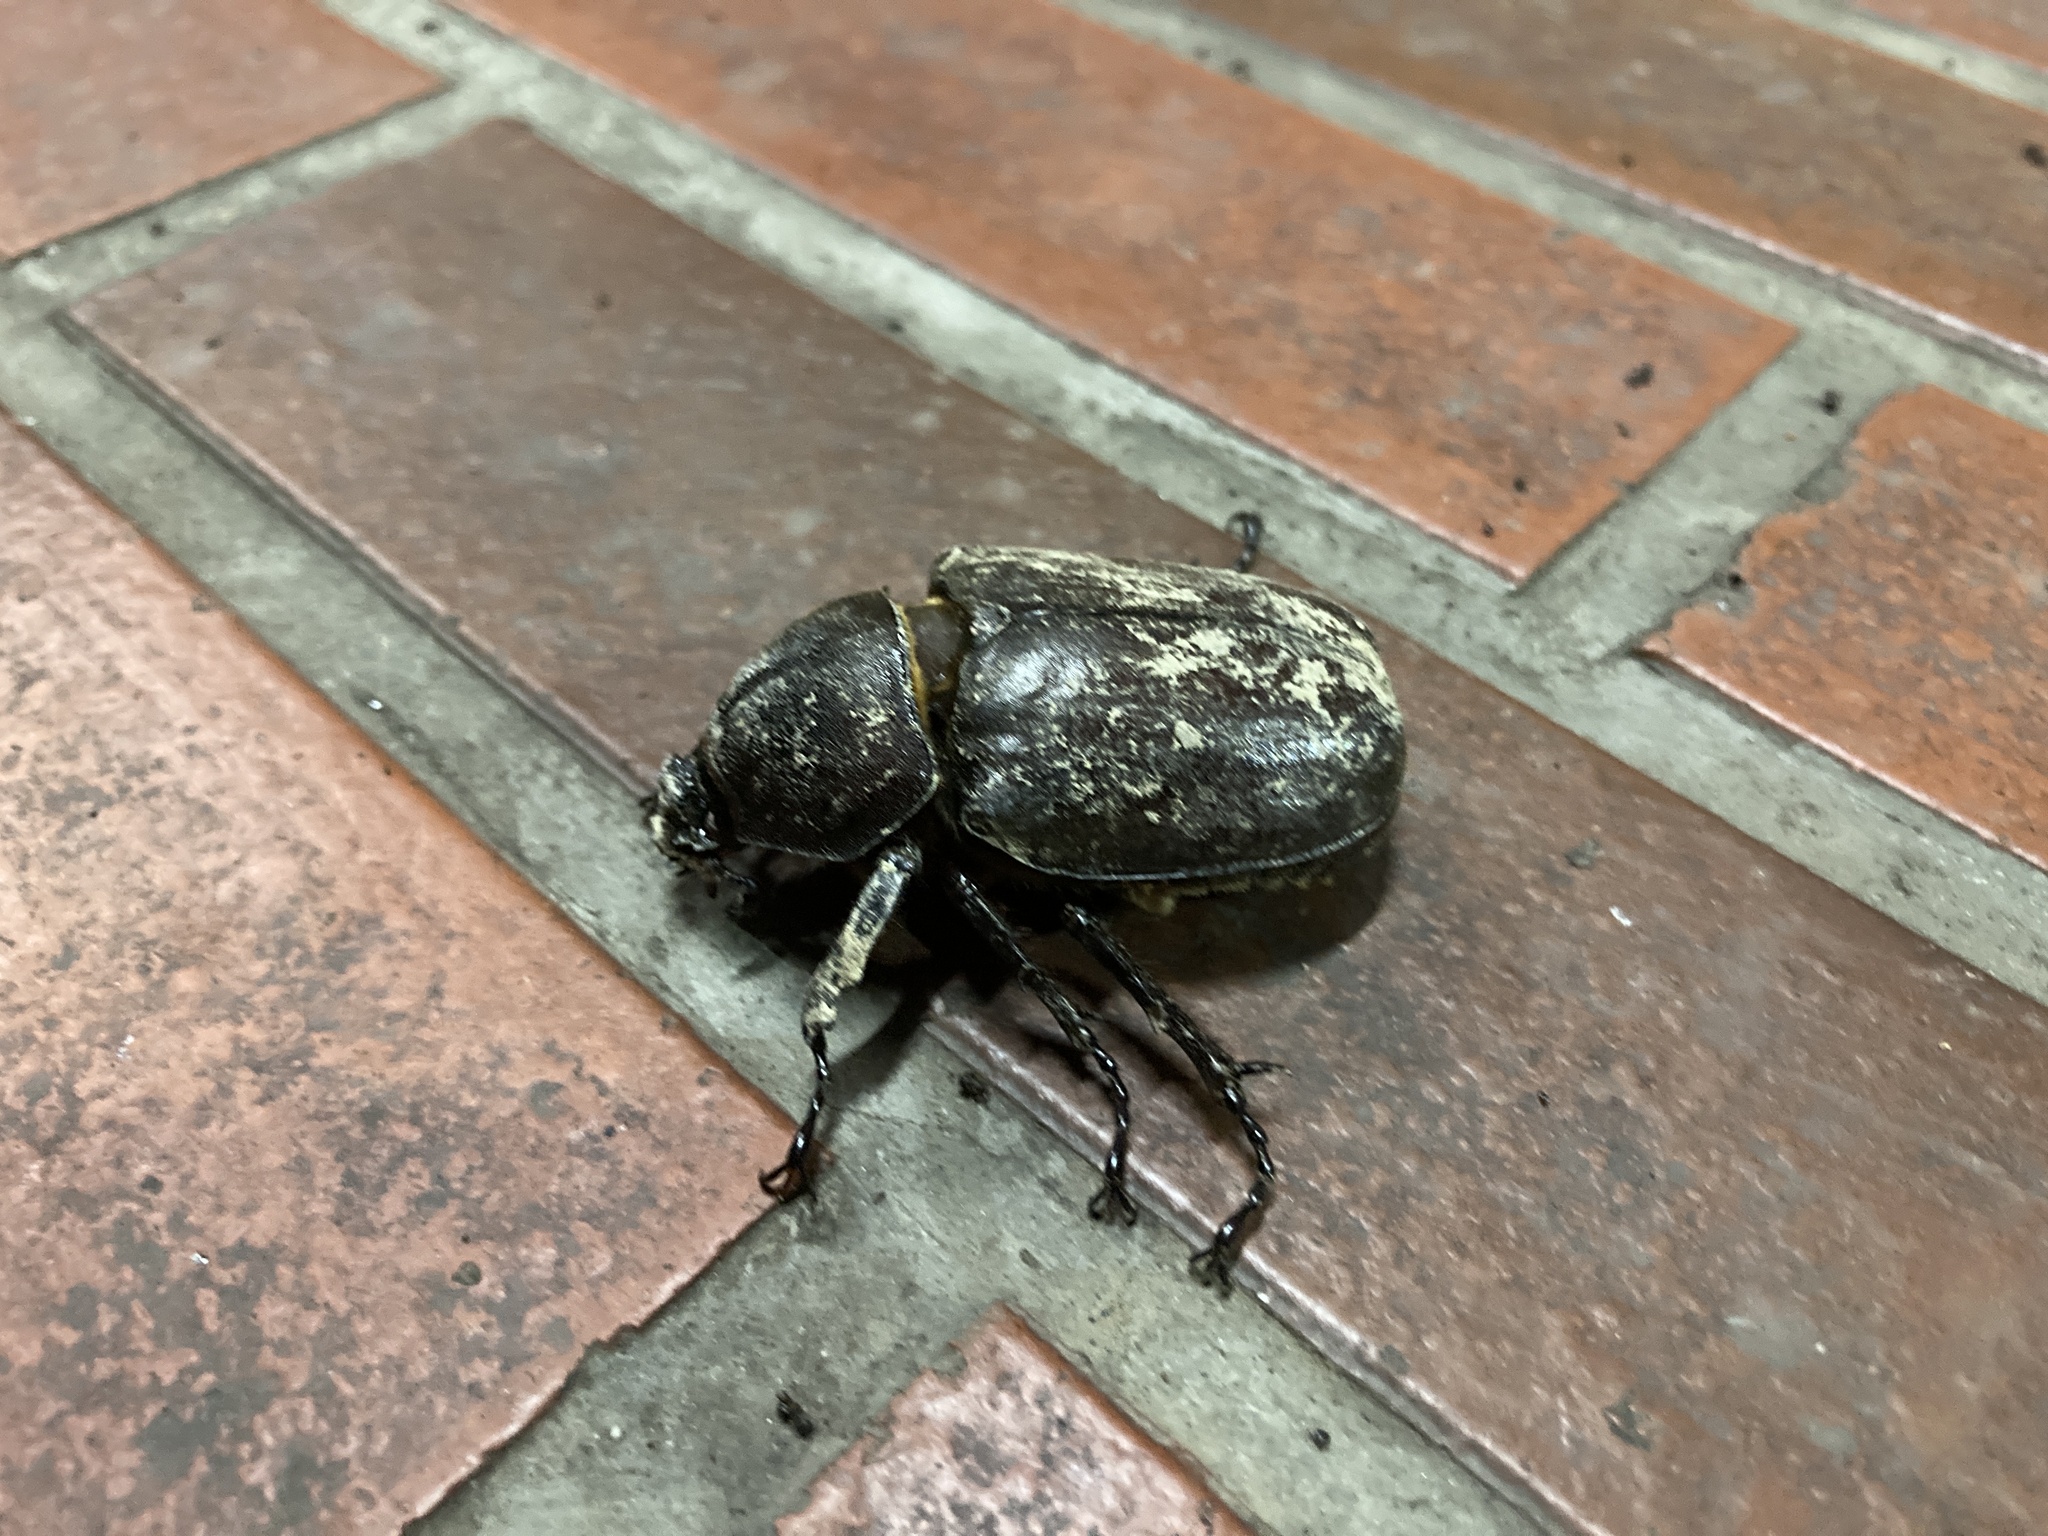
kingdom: Animalia
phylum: Arthropoda
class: Insecta
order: Coleoptera
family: Scarabaeidae
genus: Trypoxylus
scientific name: Trypoxylus dichotomus
